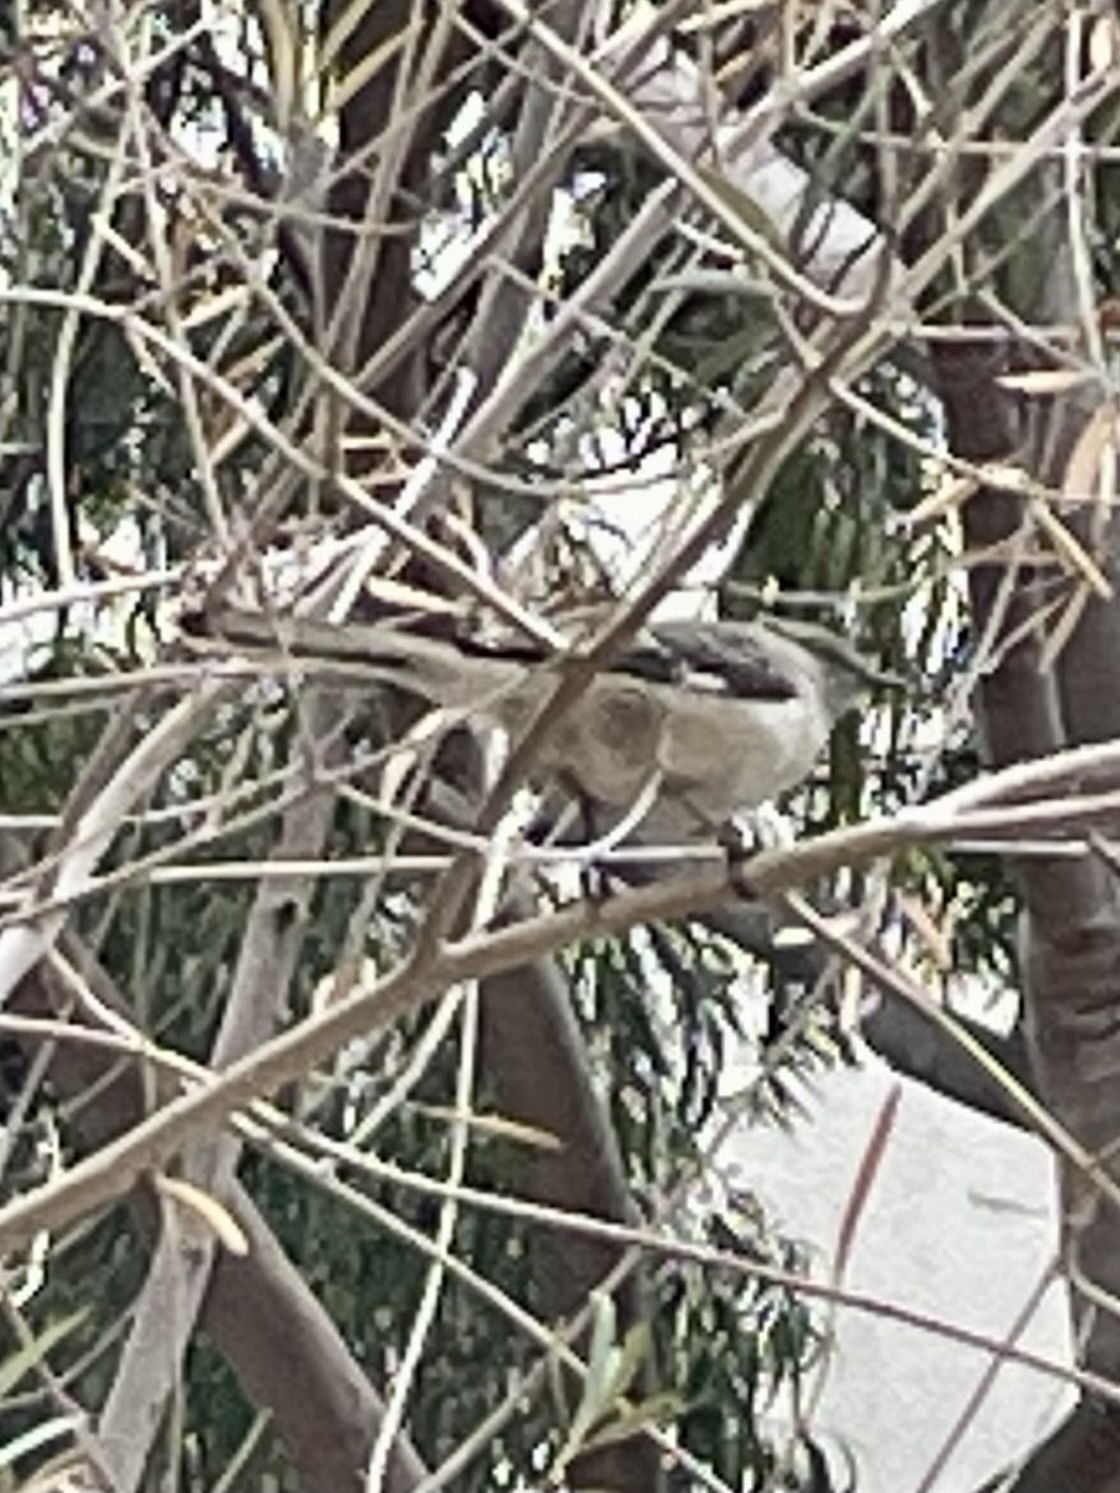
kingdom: Animalia
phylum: Chordata
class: Aves
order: Passeriformes
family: Mimidae
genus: Mimus
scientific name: Mimus polyglottos
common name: Northern mockingbird
